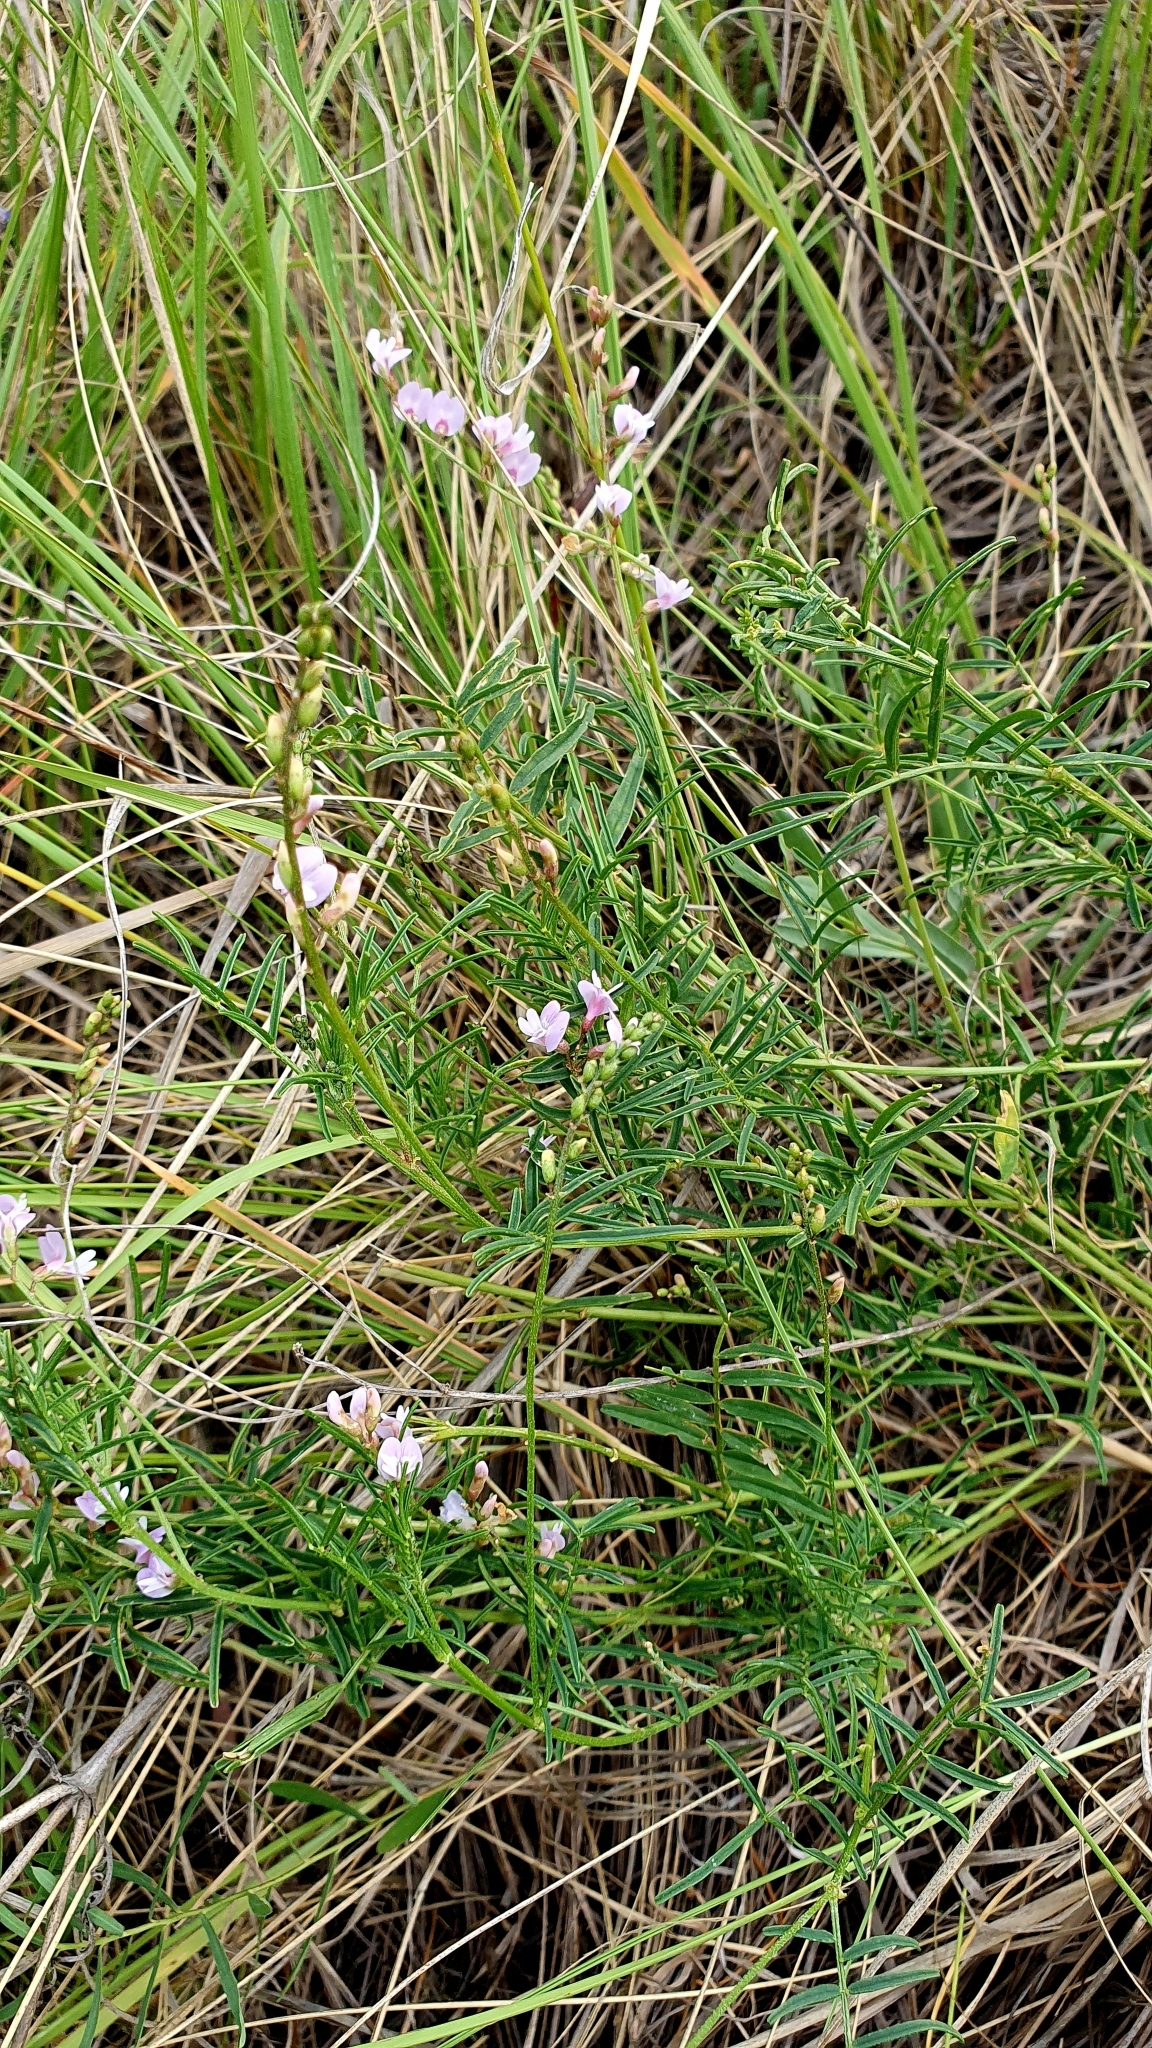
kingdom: Plantae
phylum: Tracheophyta
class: Magnoliopsida
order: Fabales
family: Fabaceae
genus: Astragalus
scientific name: Astragalus austriacus
